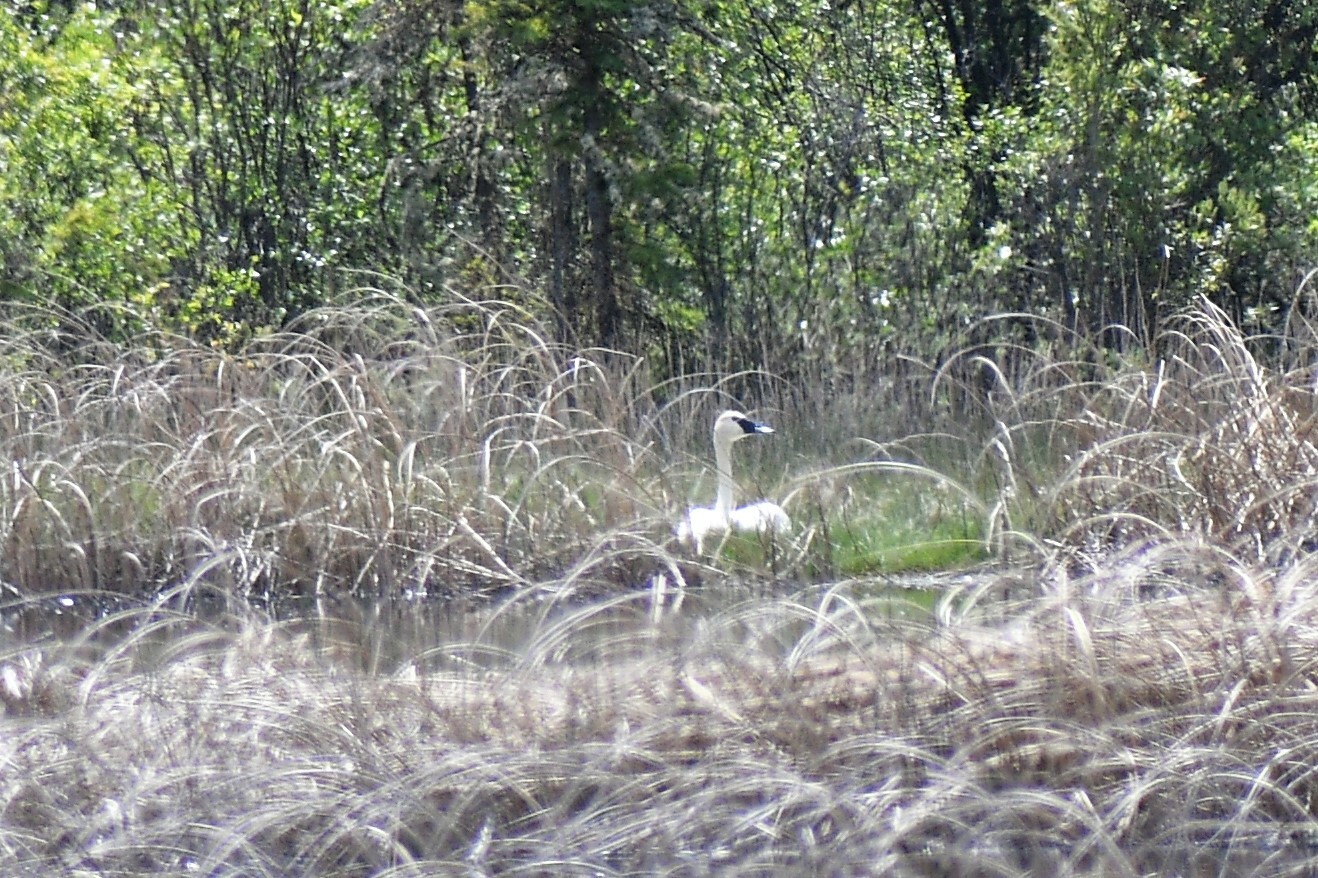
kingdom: Animalia
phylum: Chordata
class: Aves
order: Anseriformes
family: Anatidae
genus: Cygnus
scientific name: Cygnus buccinator
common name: Trumpeter swan
